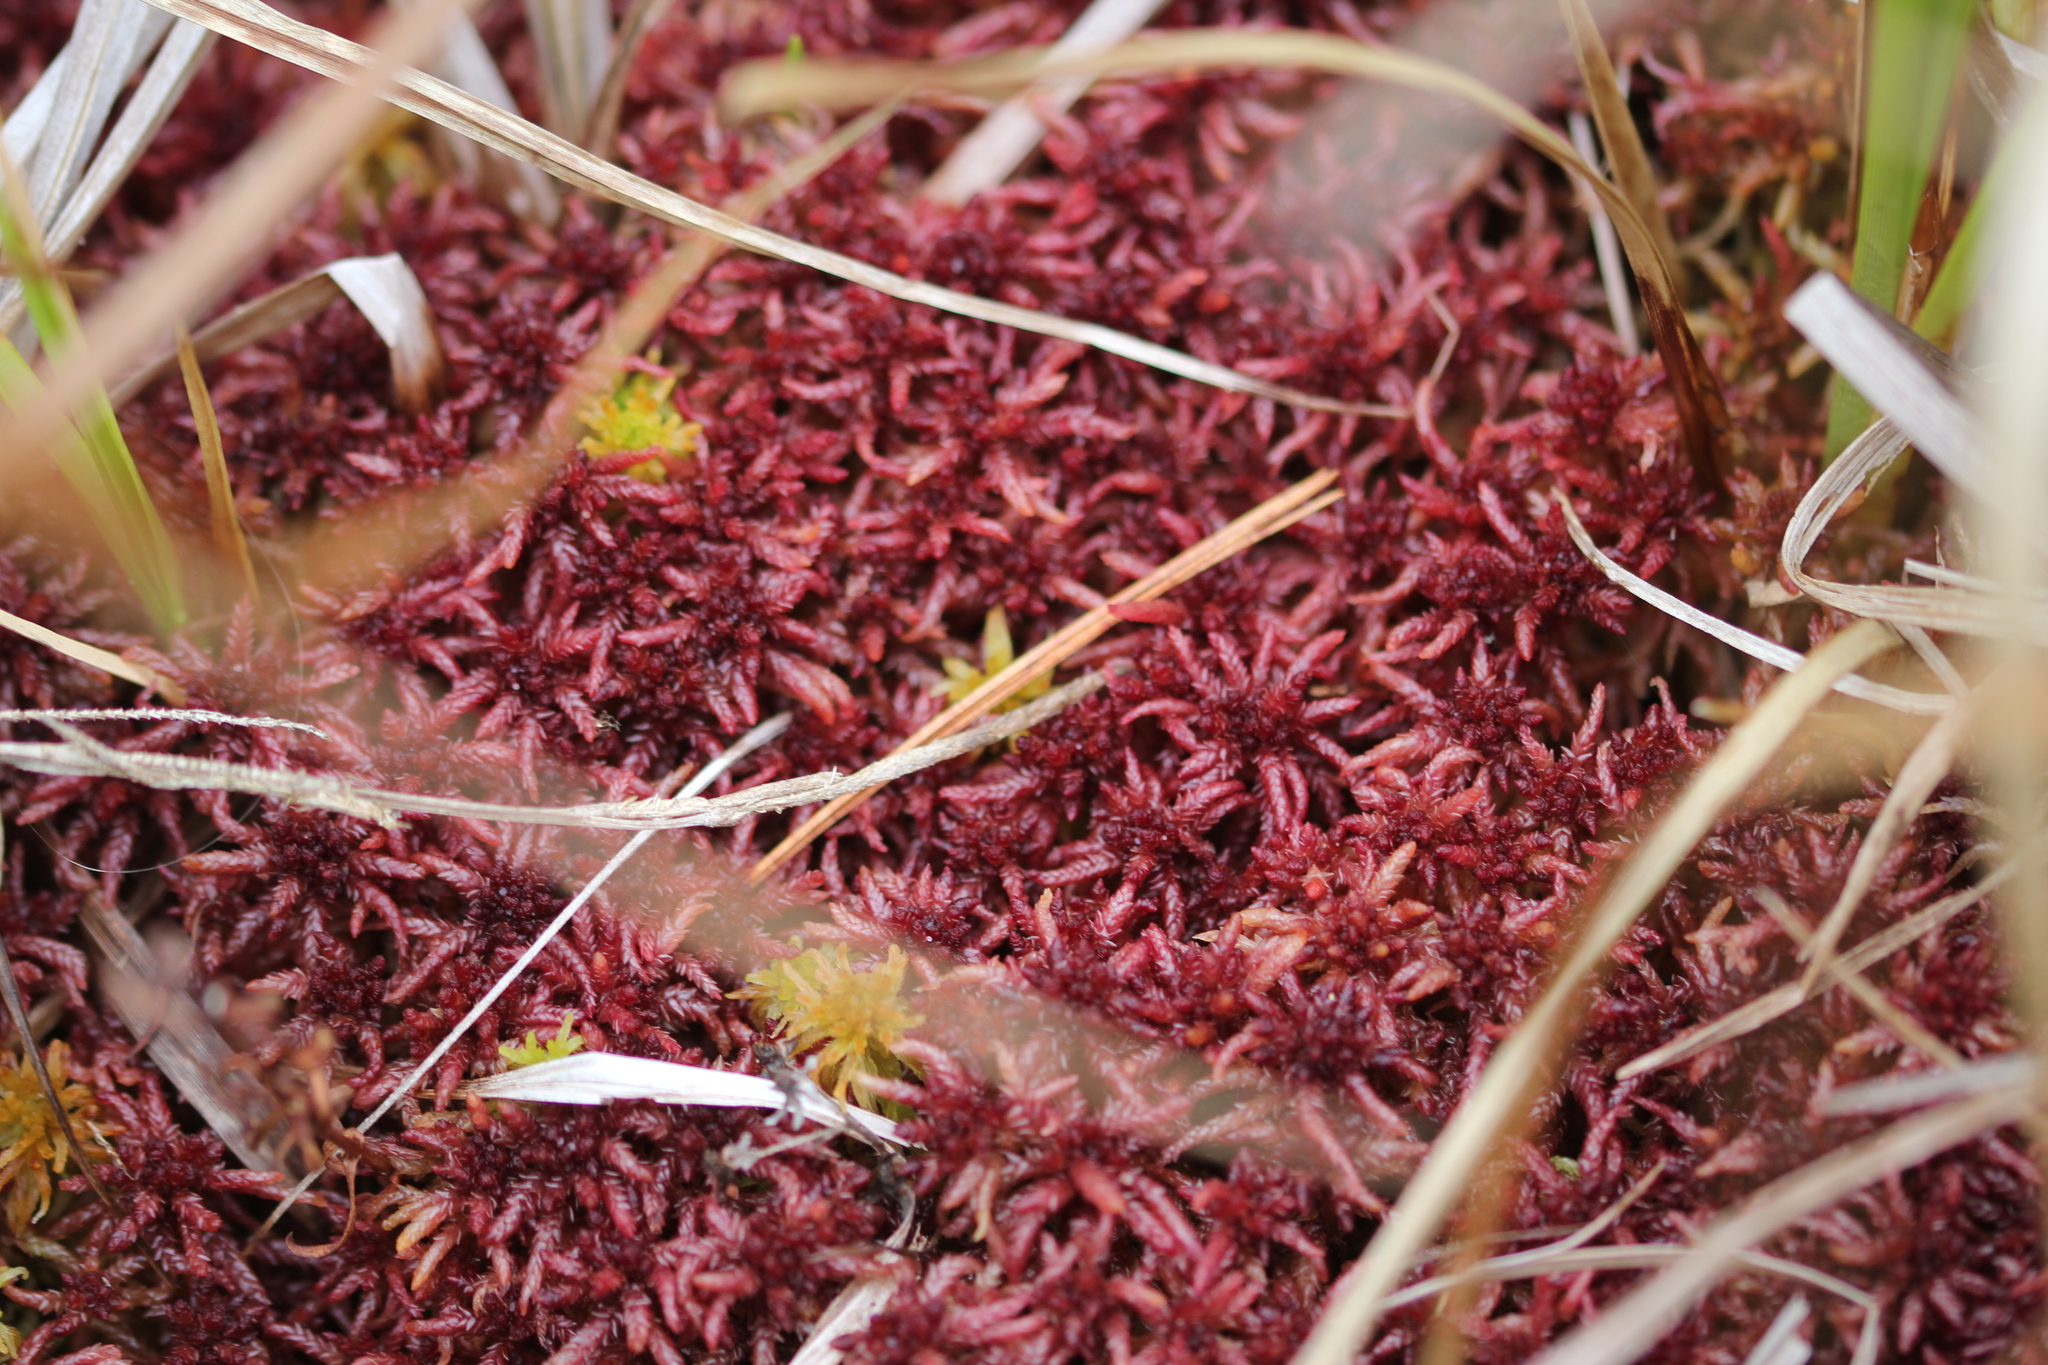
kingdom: Plantae
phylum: Bryophyta
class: Sphagnopsida
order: Sphagnales
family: Sphagnaceae
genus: Sphagnum
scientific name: Sphagnum divinum
